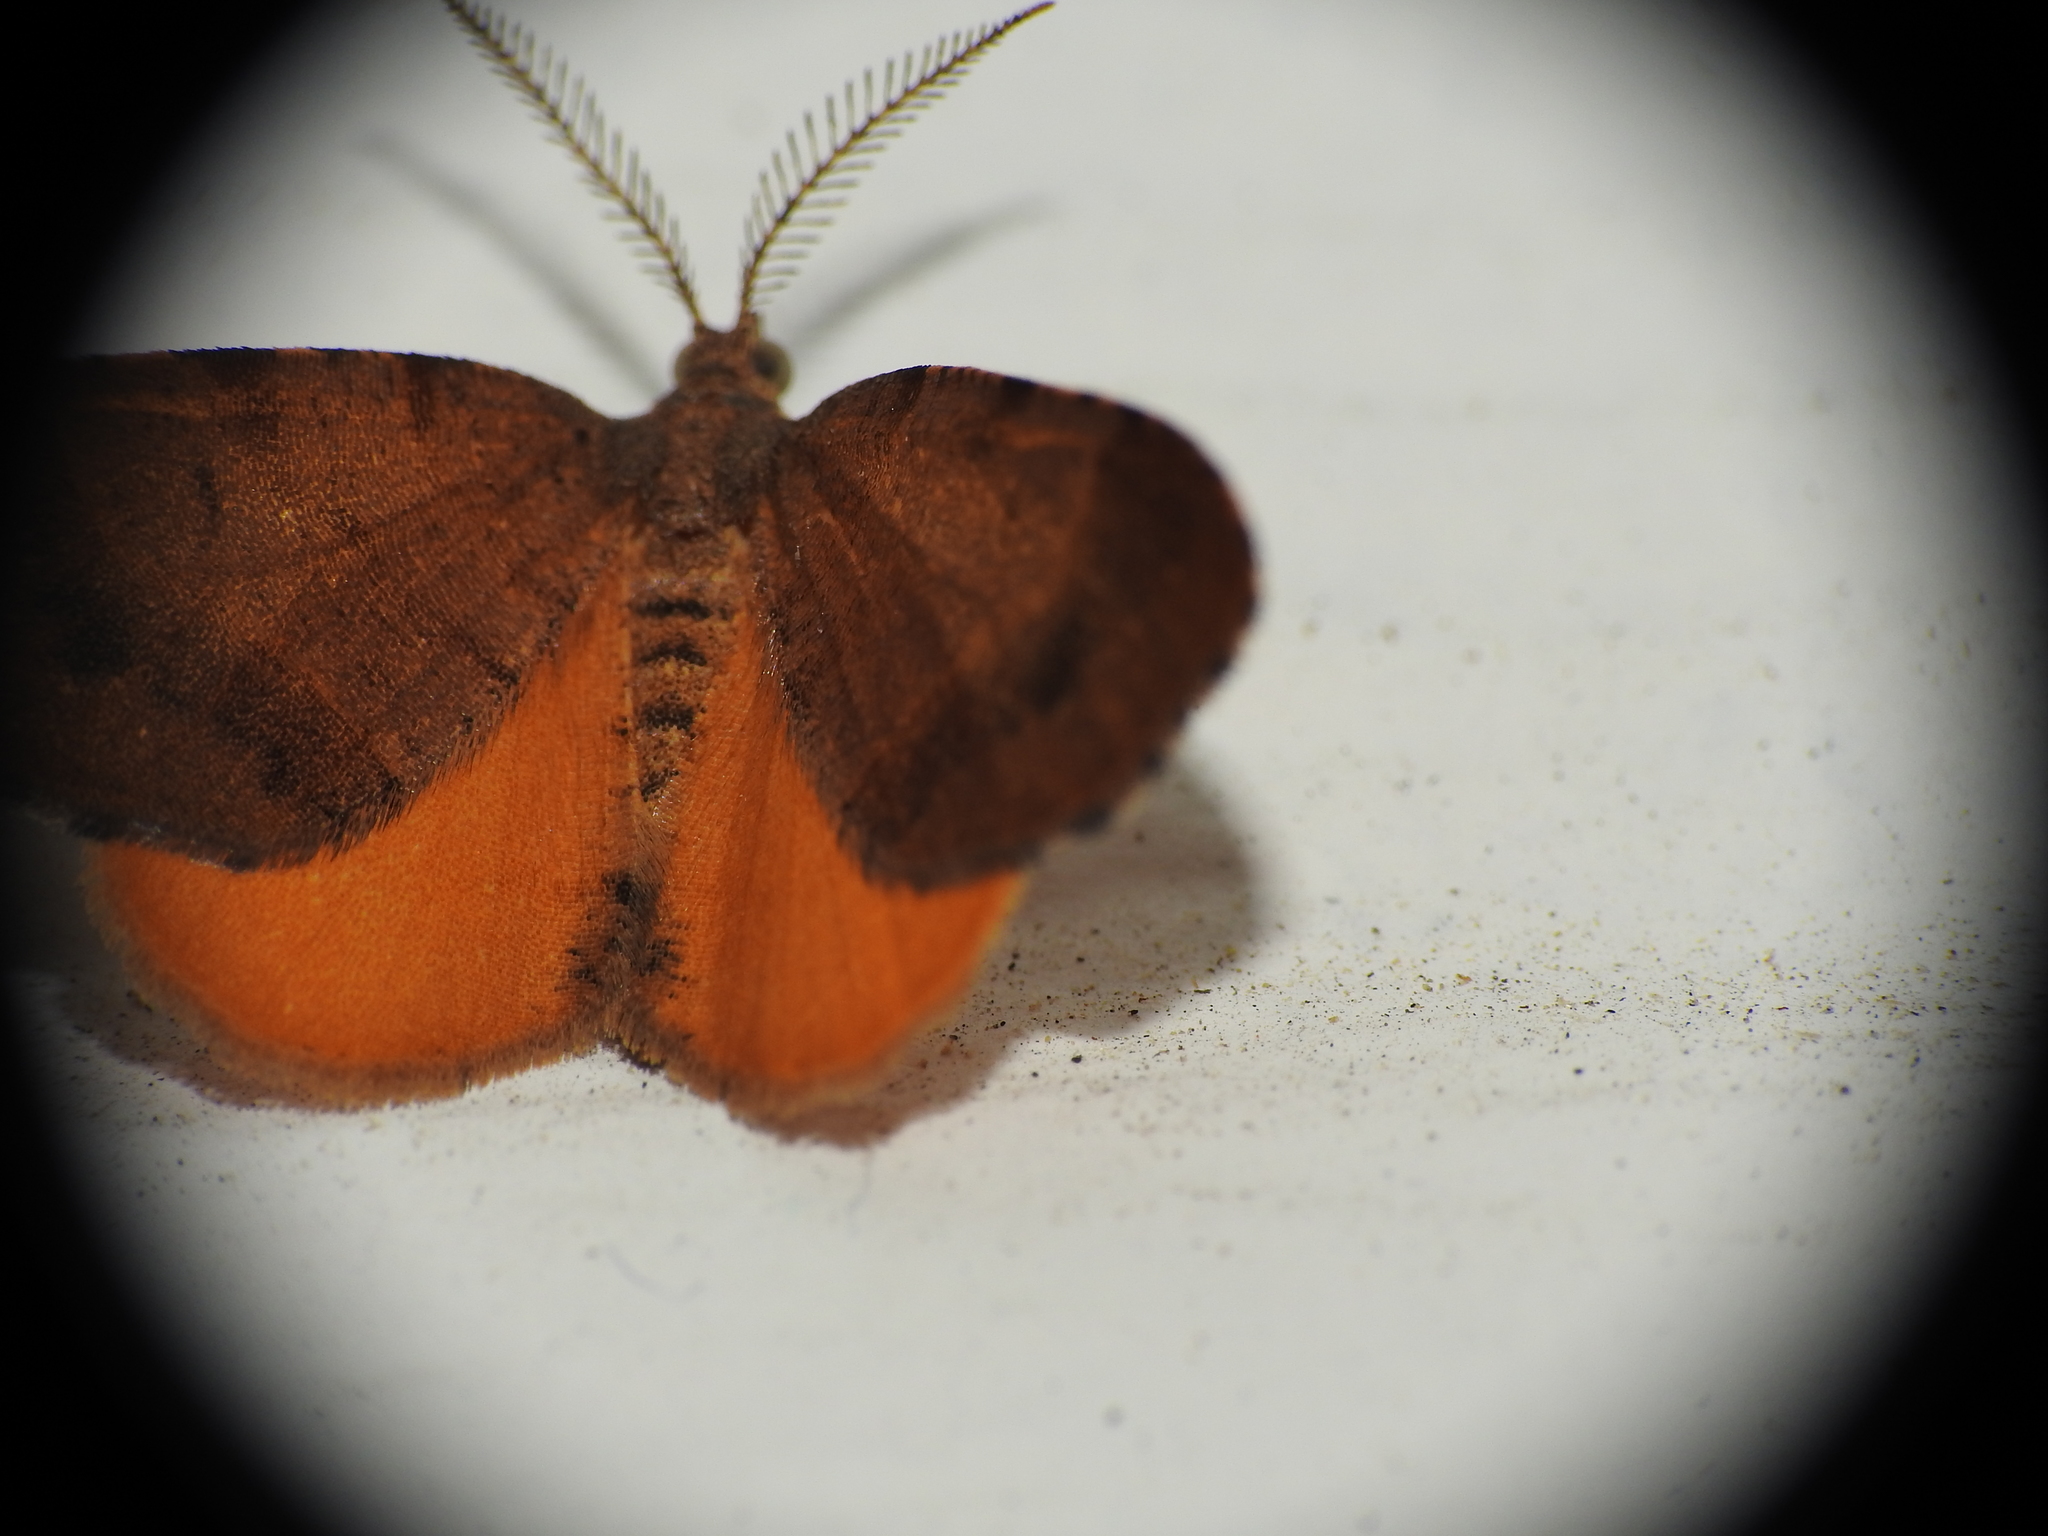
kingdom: Animalia
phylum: Arthropoda
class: Insecta
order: Lepidoptera
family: Geometridae
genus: Mellilla
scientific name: Mellilla xanthometata
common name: Orange wing moth
